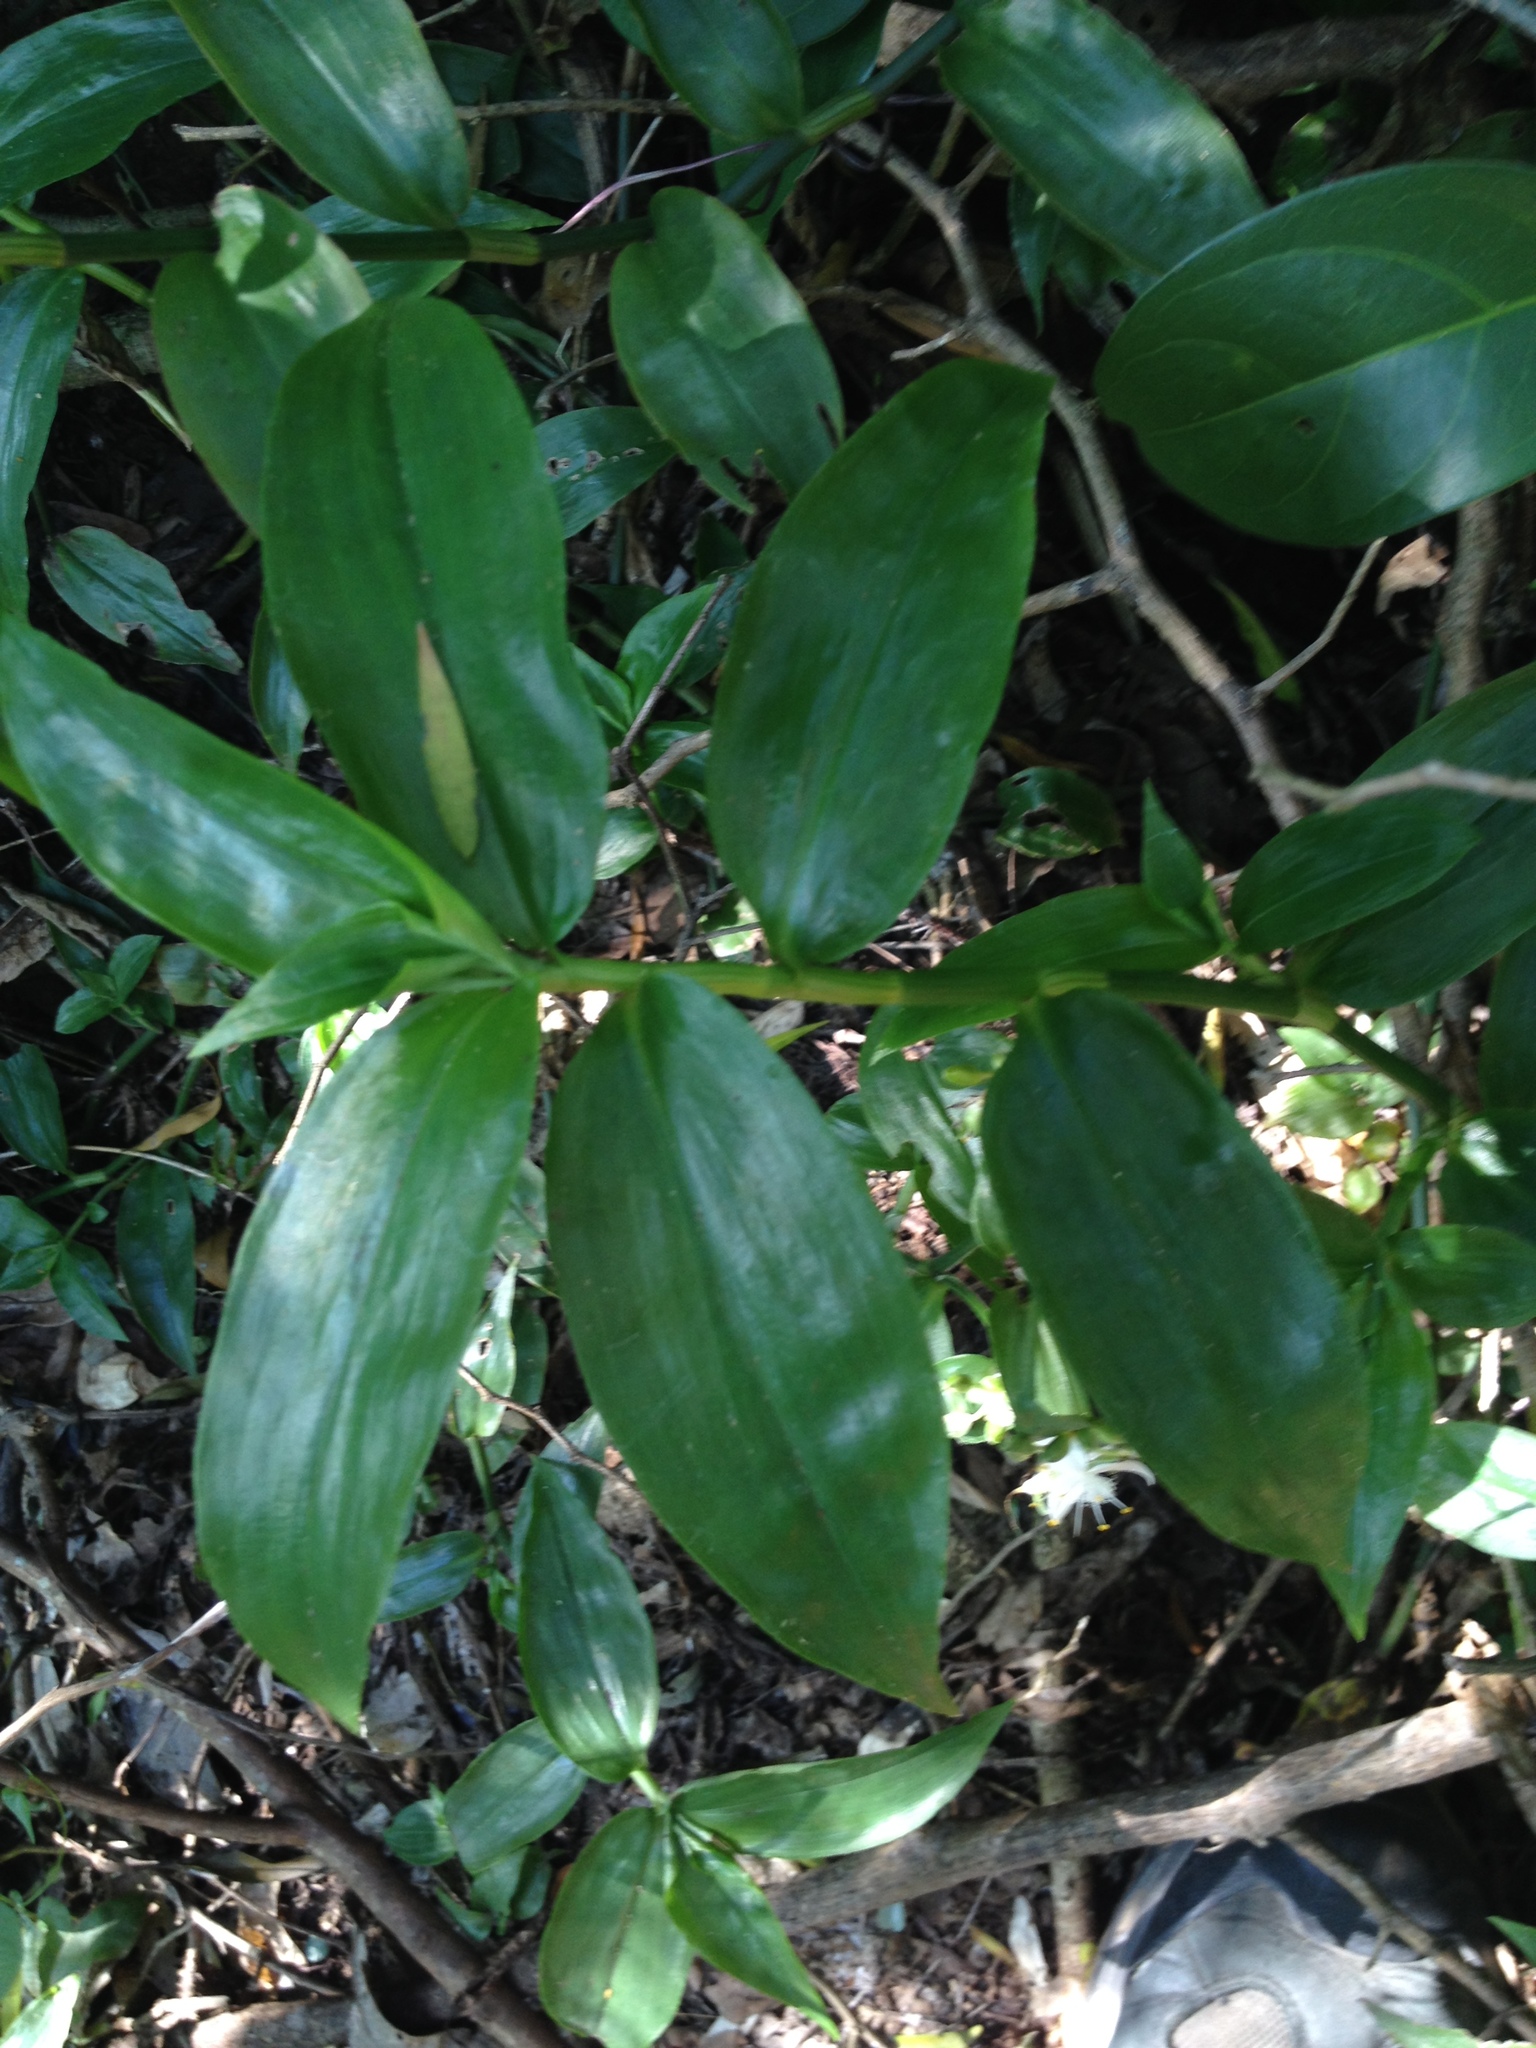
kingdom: Plantae
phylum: Tracheophyta
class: Liliopsida
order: Commelinales
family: Commelinaceae
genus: Tradescantia
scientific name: Tradescantia fluminensis
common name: Wandering-jew
